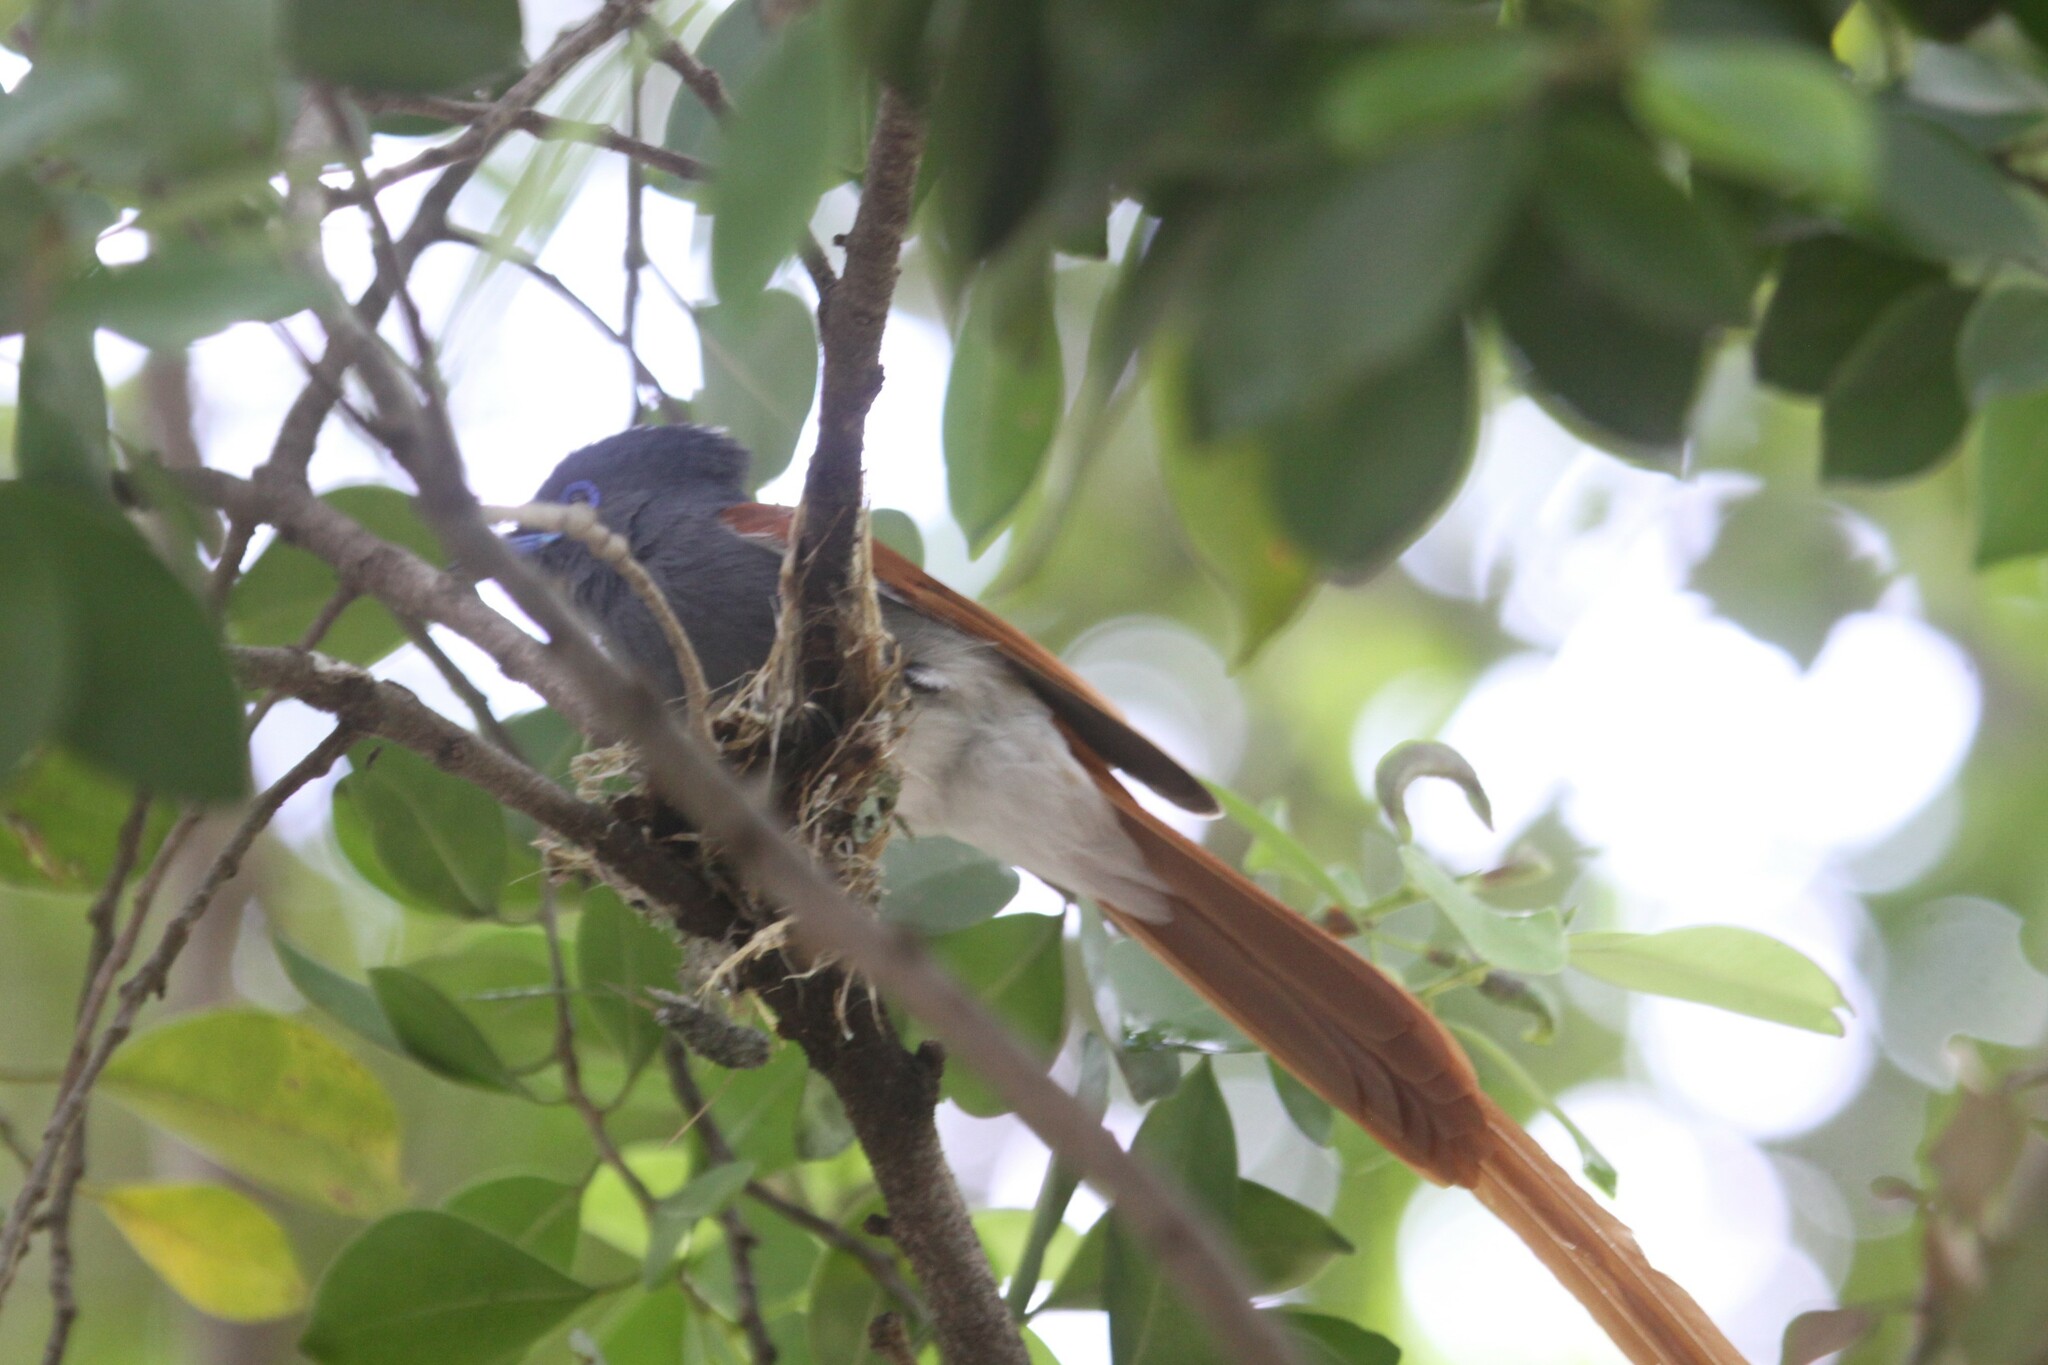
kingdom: Animalia
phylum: Chordata
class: Aves
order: Passeriformes
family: Monarchidae
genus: Terpsiphone
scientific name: Terpsiphone viridis
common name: African paradise flycatcher
